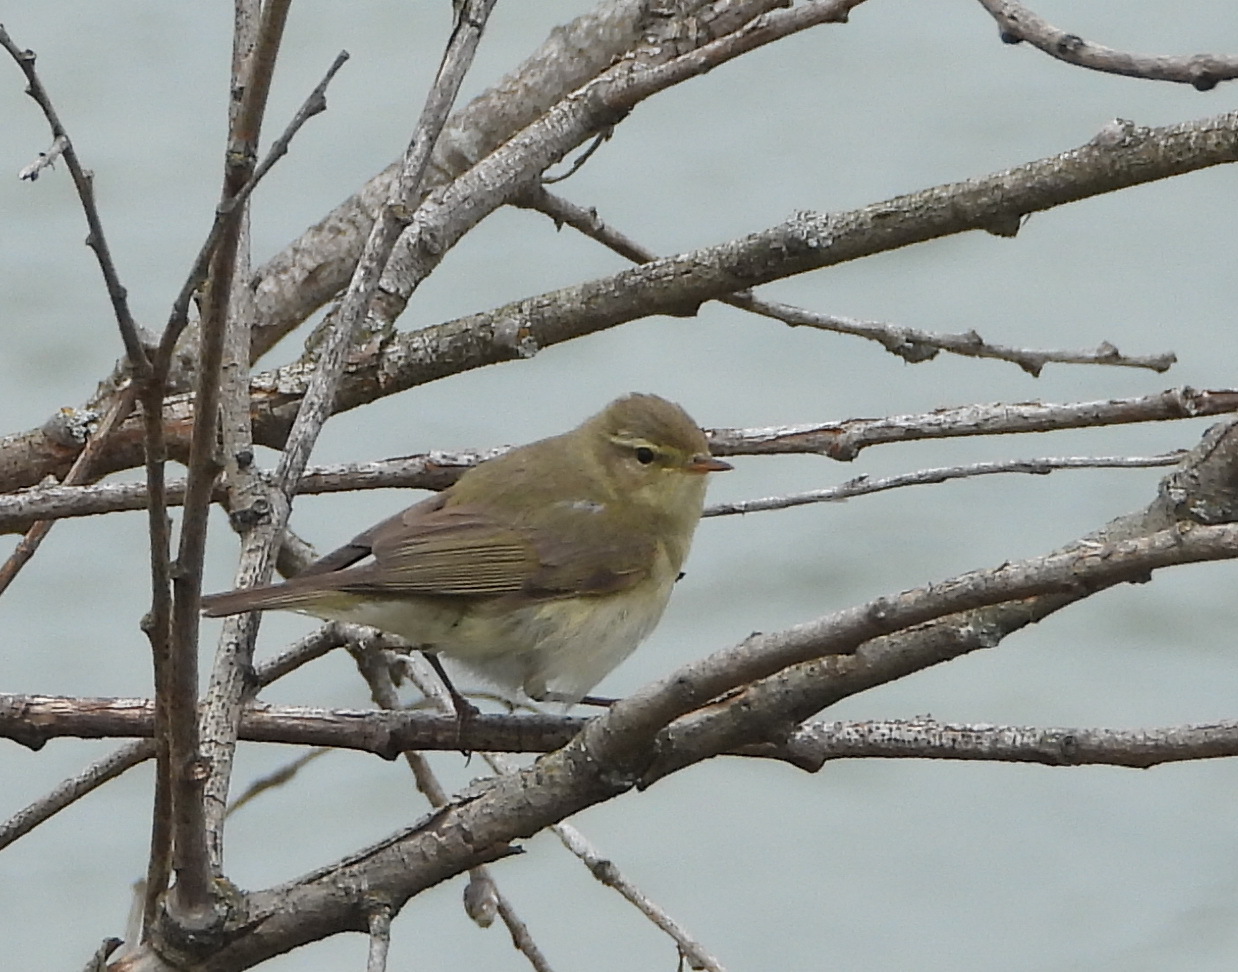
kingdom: Animalia
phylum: Chordata
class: Aves
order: Passeriformes
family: Phylloscopidae
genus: Phylloscopus
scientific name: Phylloscopus trochilus
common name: Willow warbler
